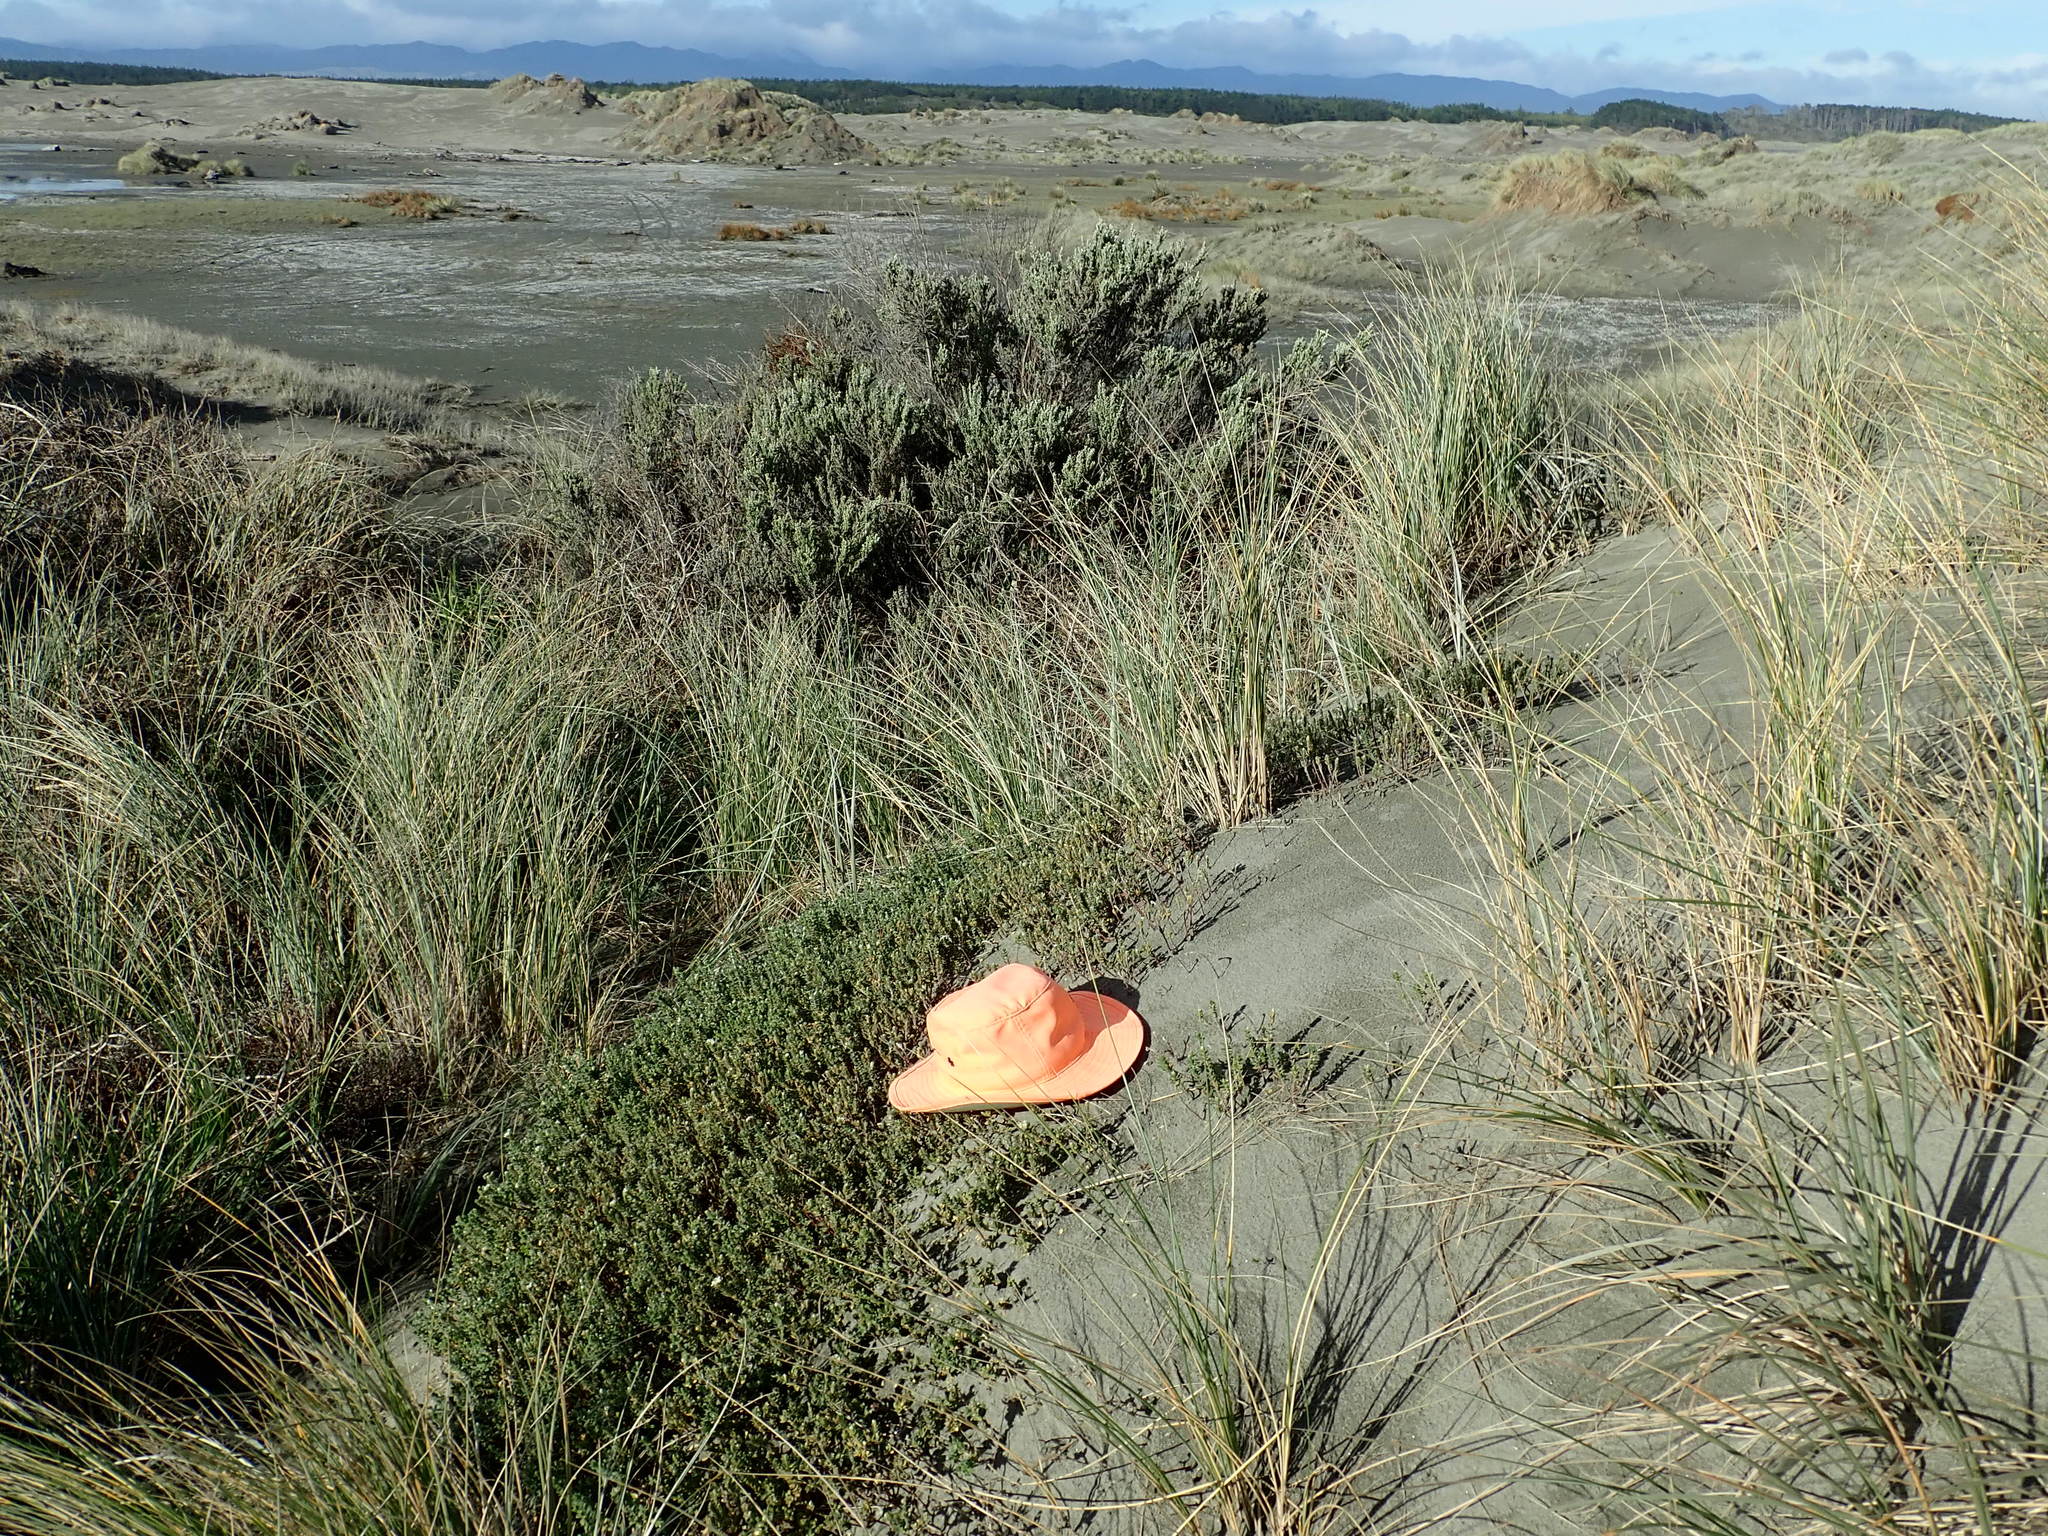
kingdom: Plantae
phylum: Tracheophyta
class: Magnoliopsida
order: Malvales
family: Thymelaeaceae
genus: Pimelea
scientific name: Pimelea villosa
